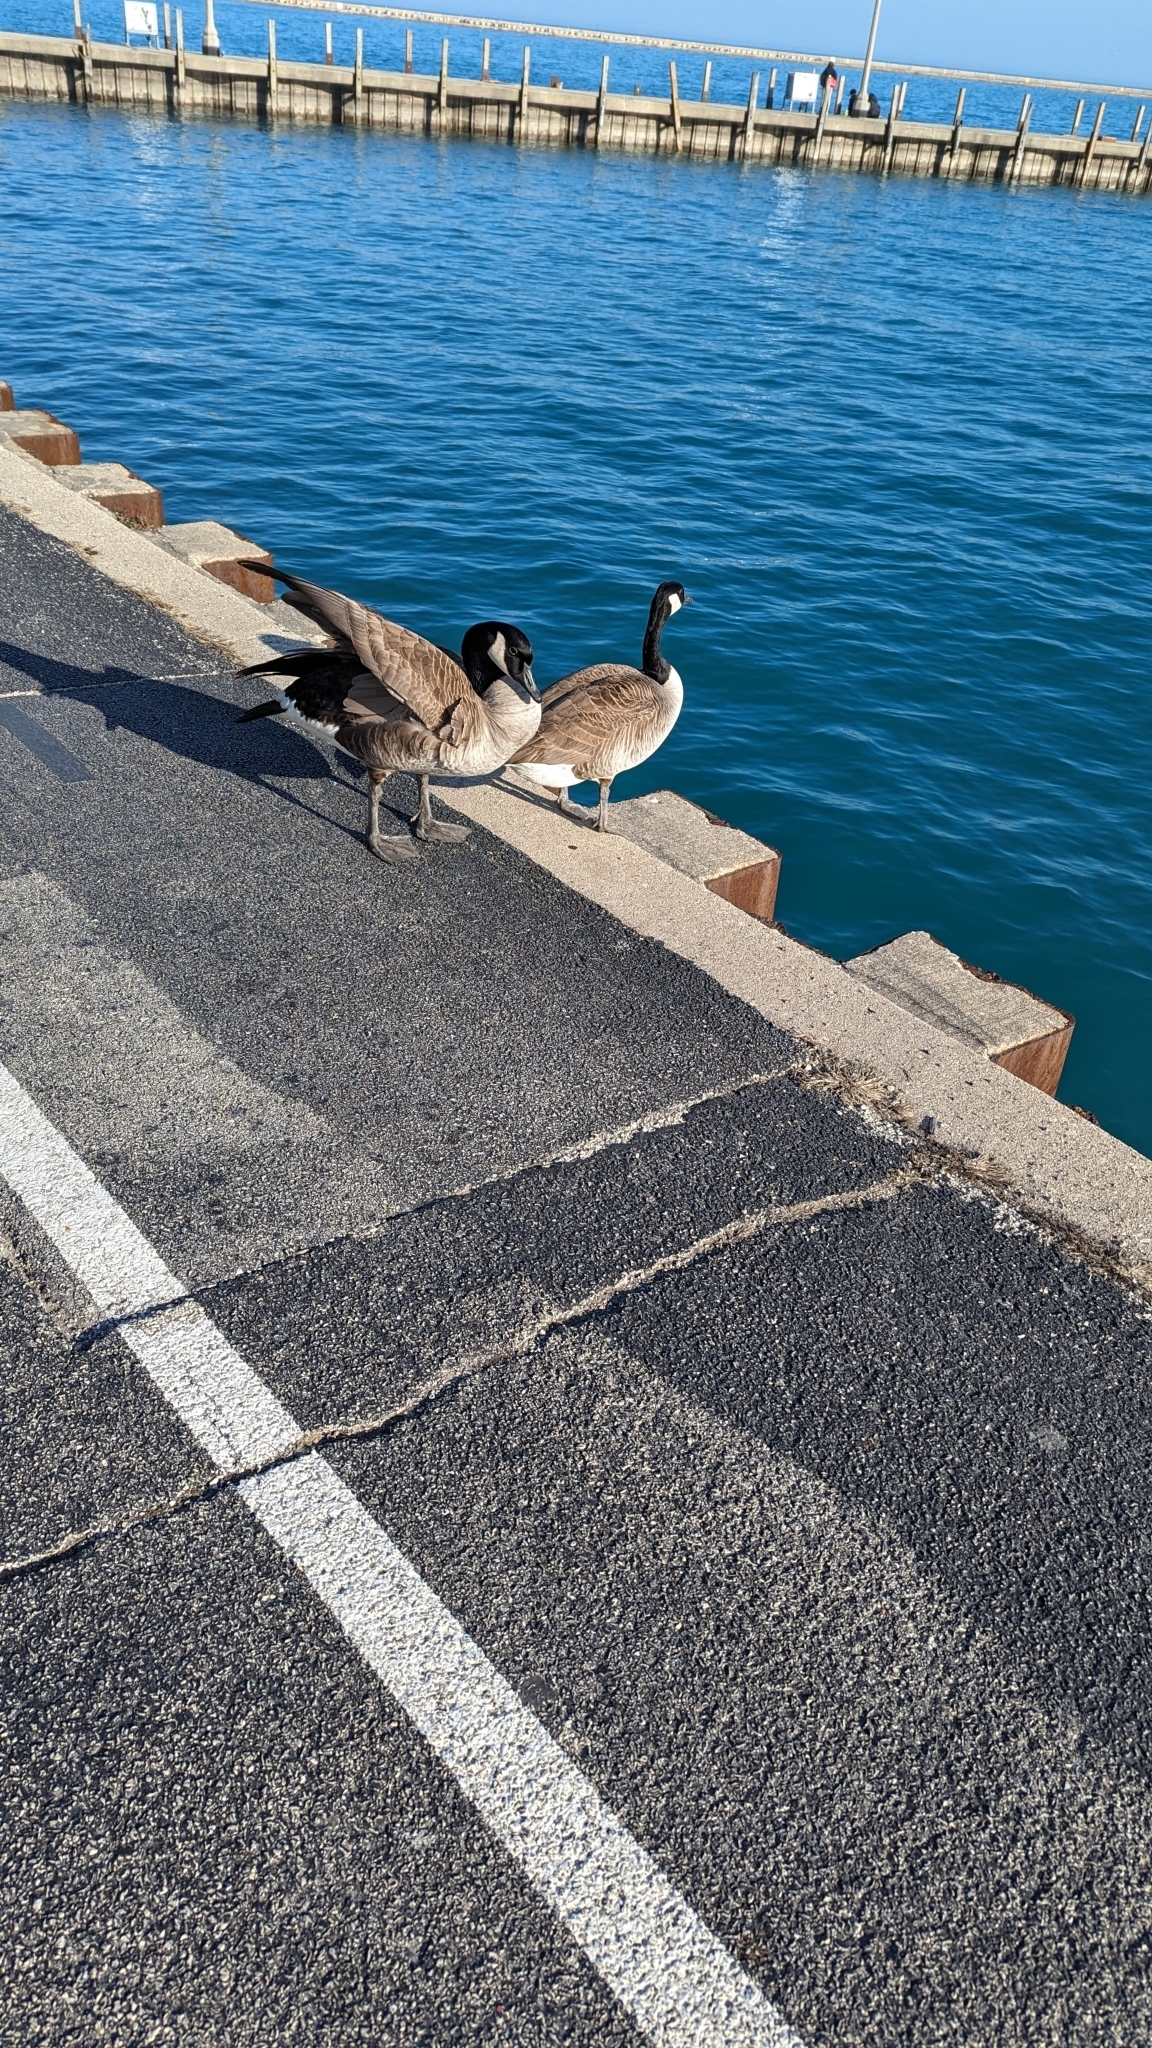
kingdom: Animalia
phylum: Chordata
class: Aves
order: Anseriformes
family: Anatidae
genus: Branta
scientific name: Branta canadensis
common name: Canada goose
